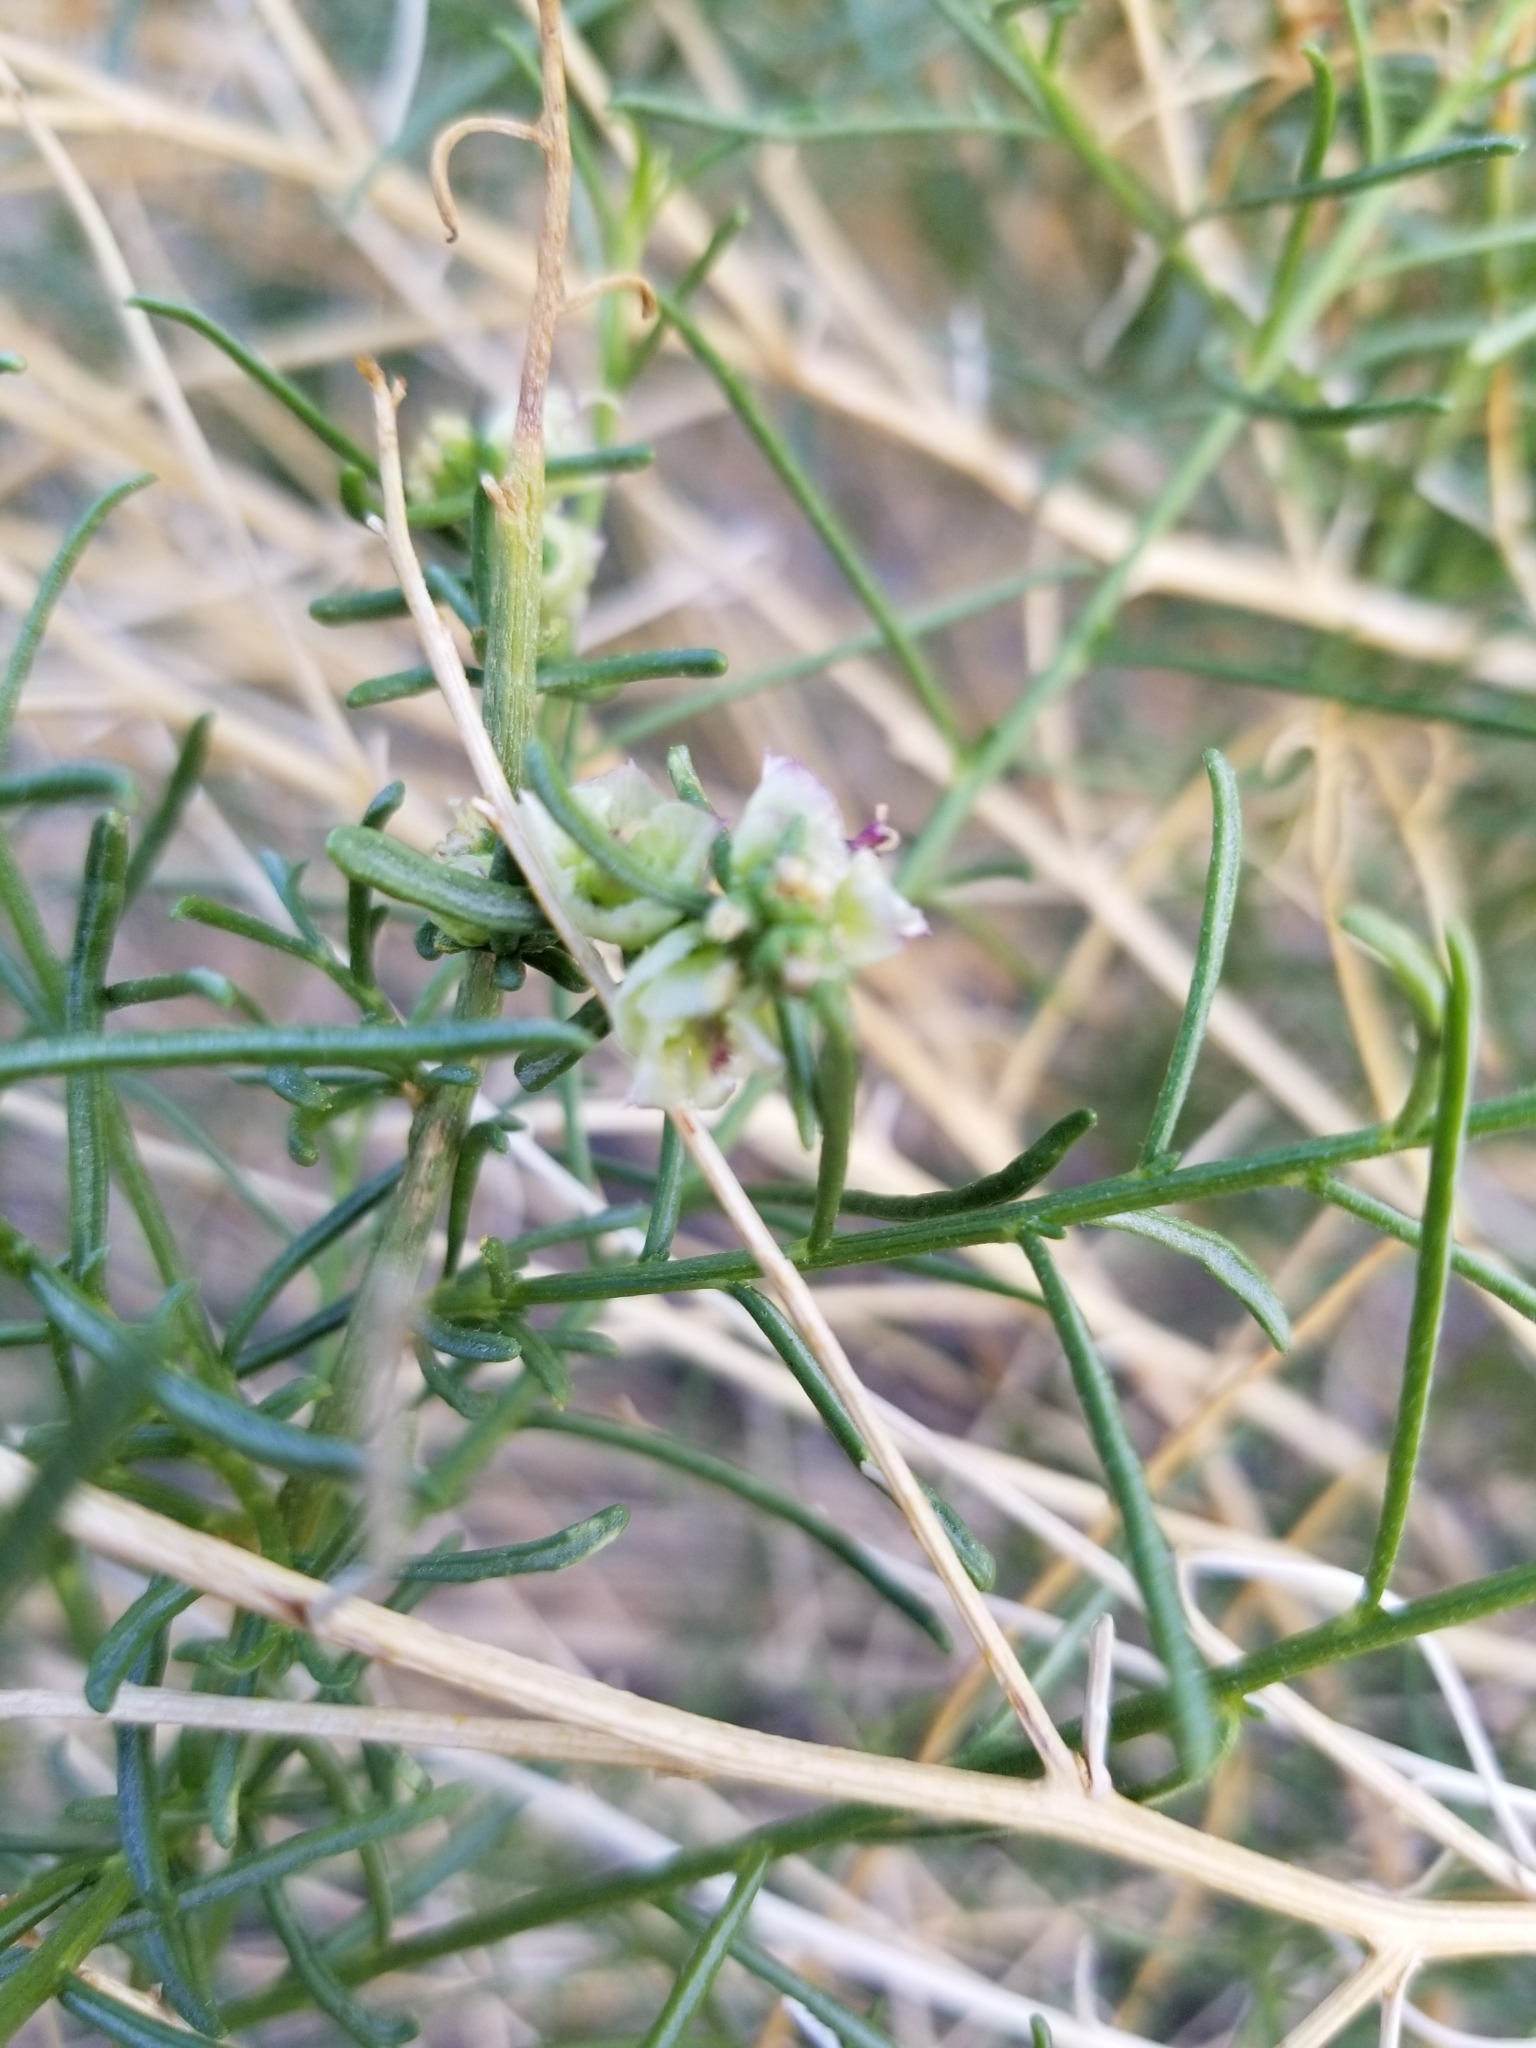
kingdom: Plantae
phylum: Tracheophyta
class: Magnoliopsida
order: Asterales
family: Asteraceae
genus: Ambrosia
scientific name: Ambrosia salsola
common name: Burrobrush
